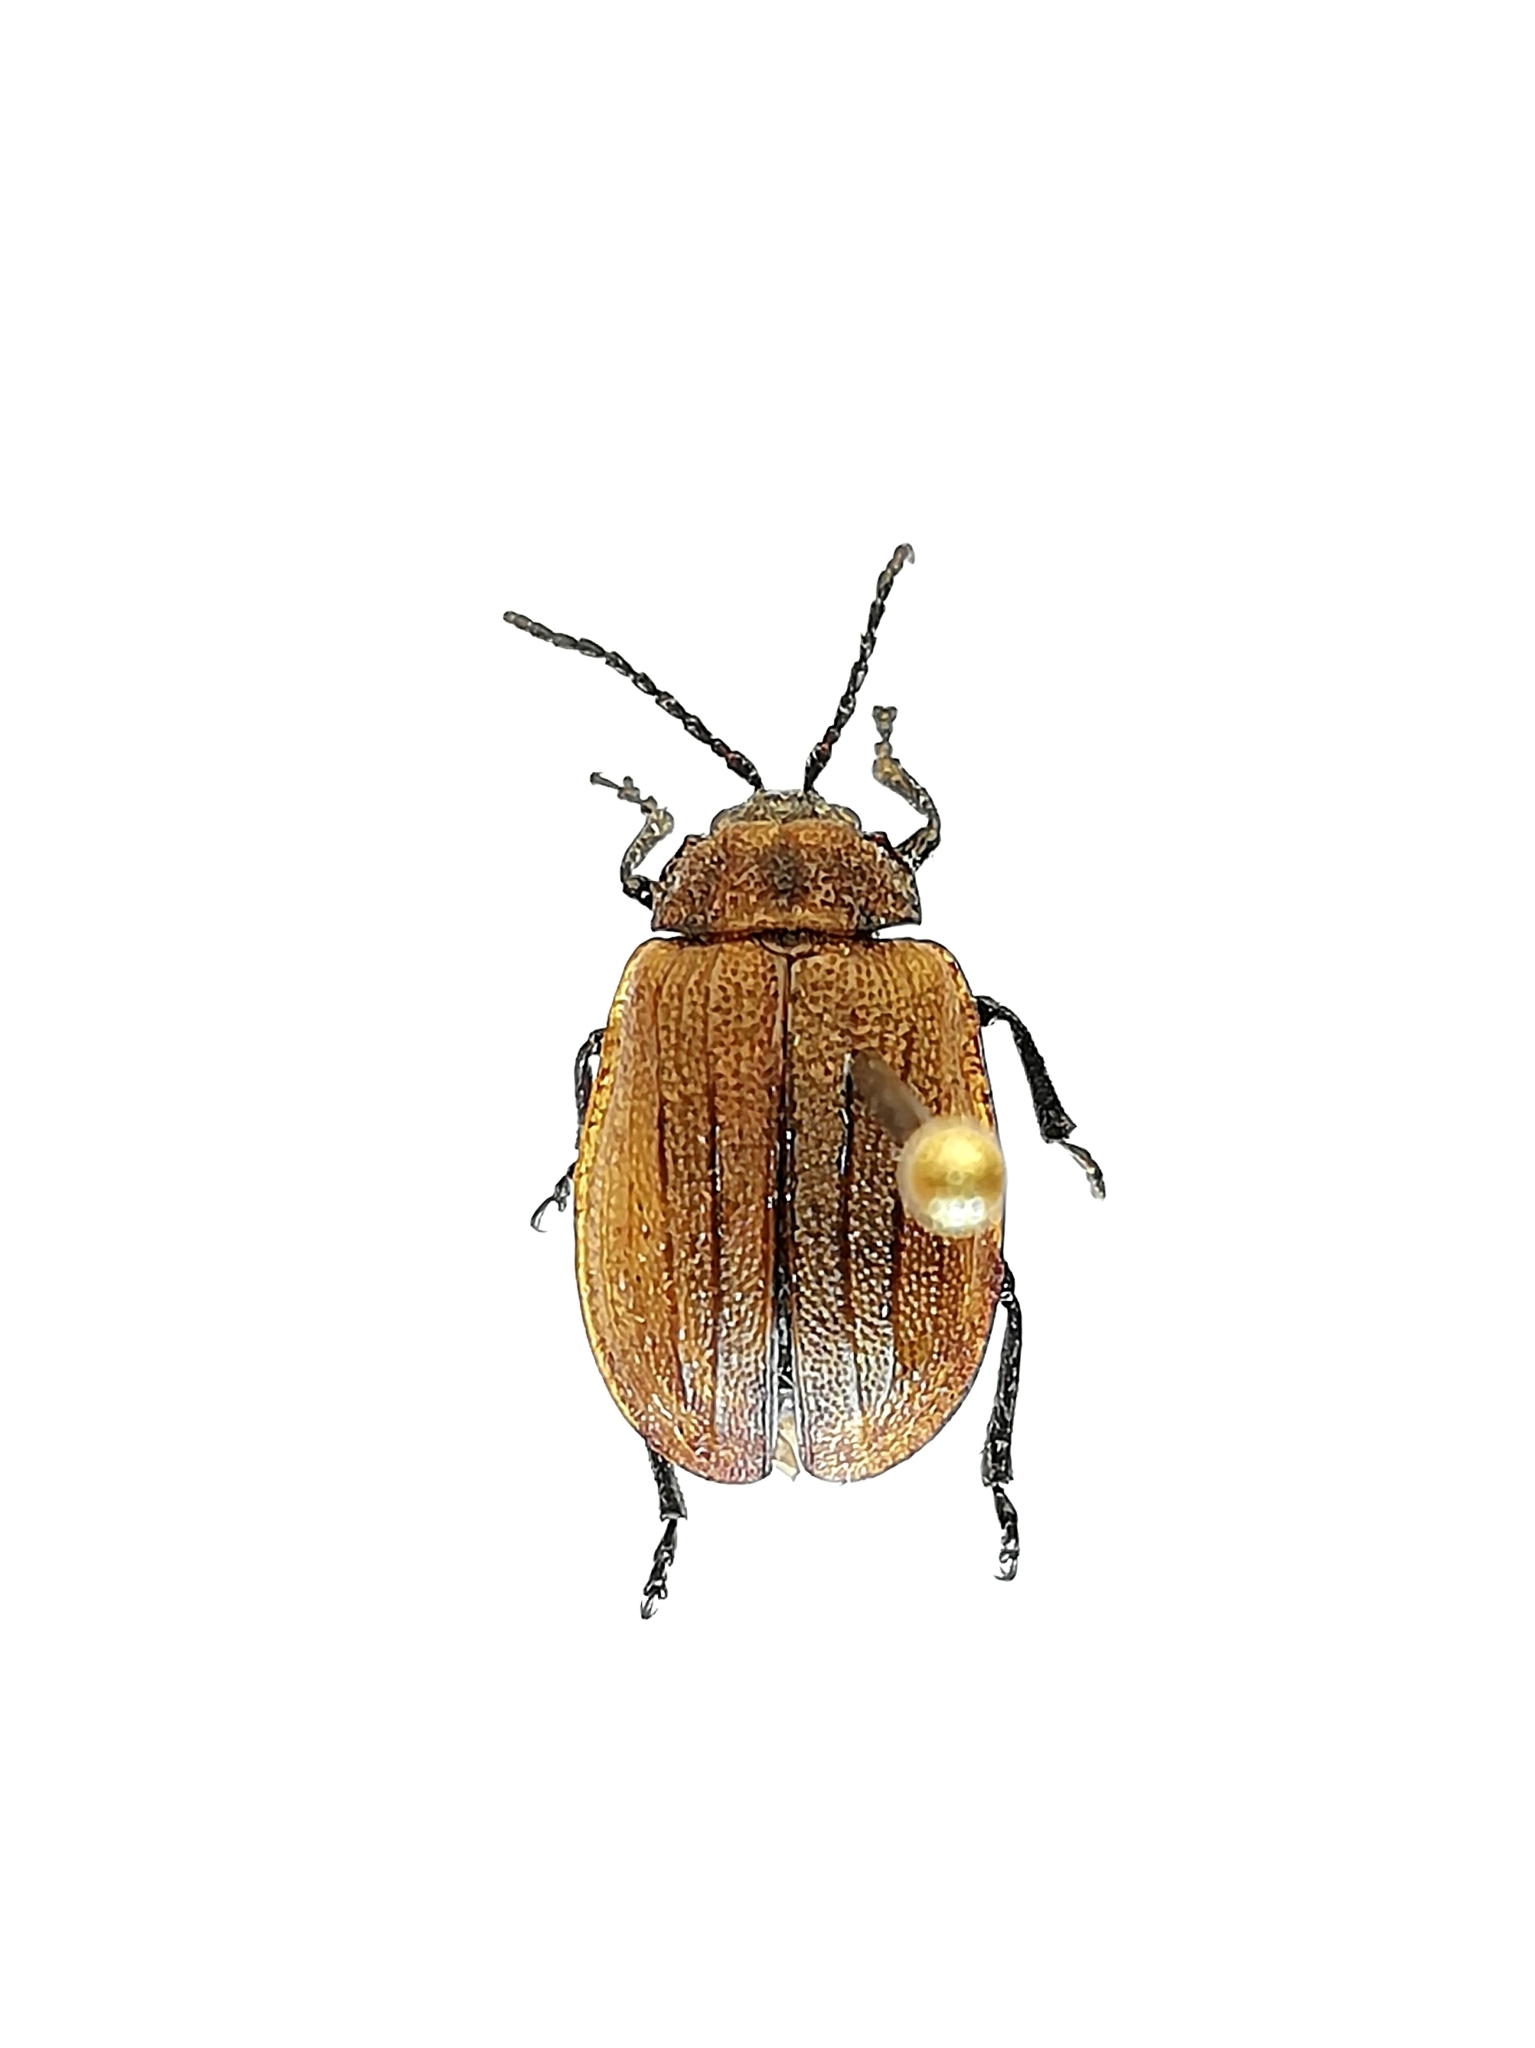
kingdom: Animalia
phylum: Arthropoda
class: Insecta
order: Coleoptera
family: Chrysomelidae
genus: Galeruca
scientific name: Galeruca pomonae
